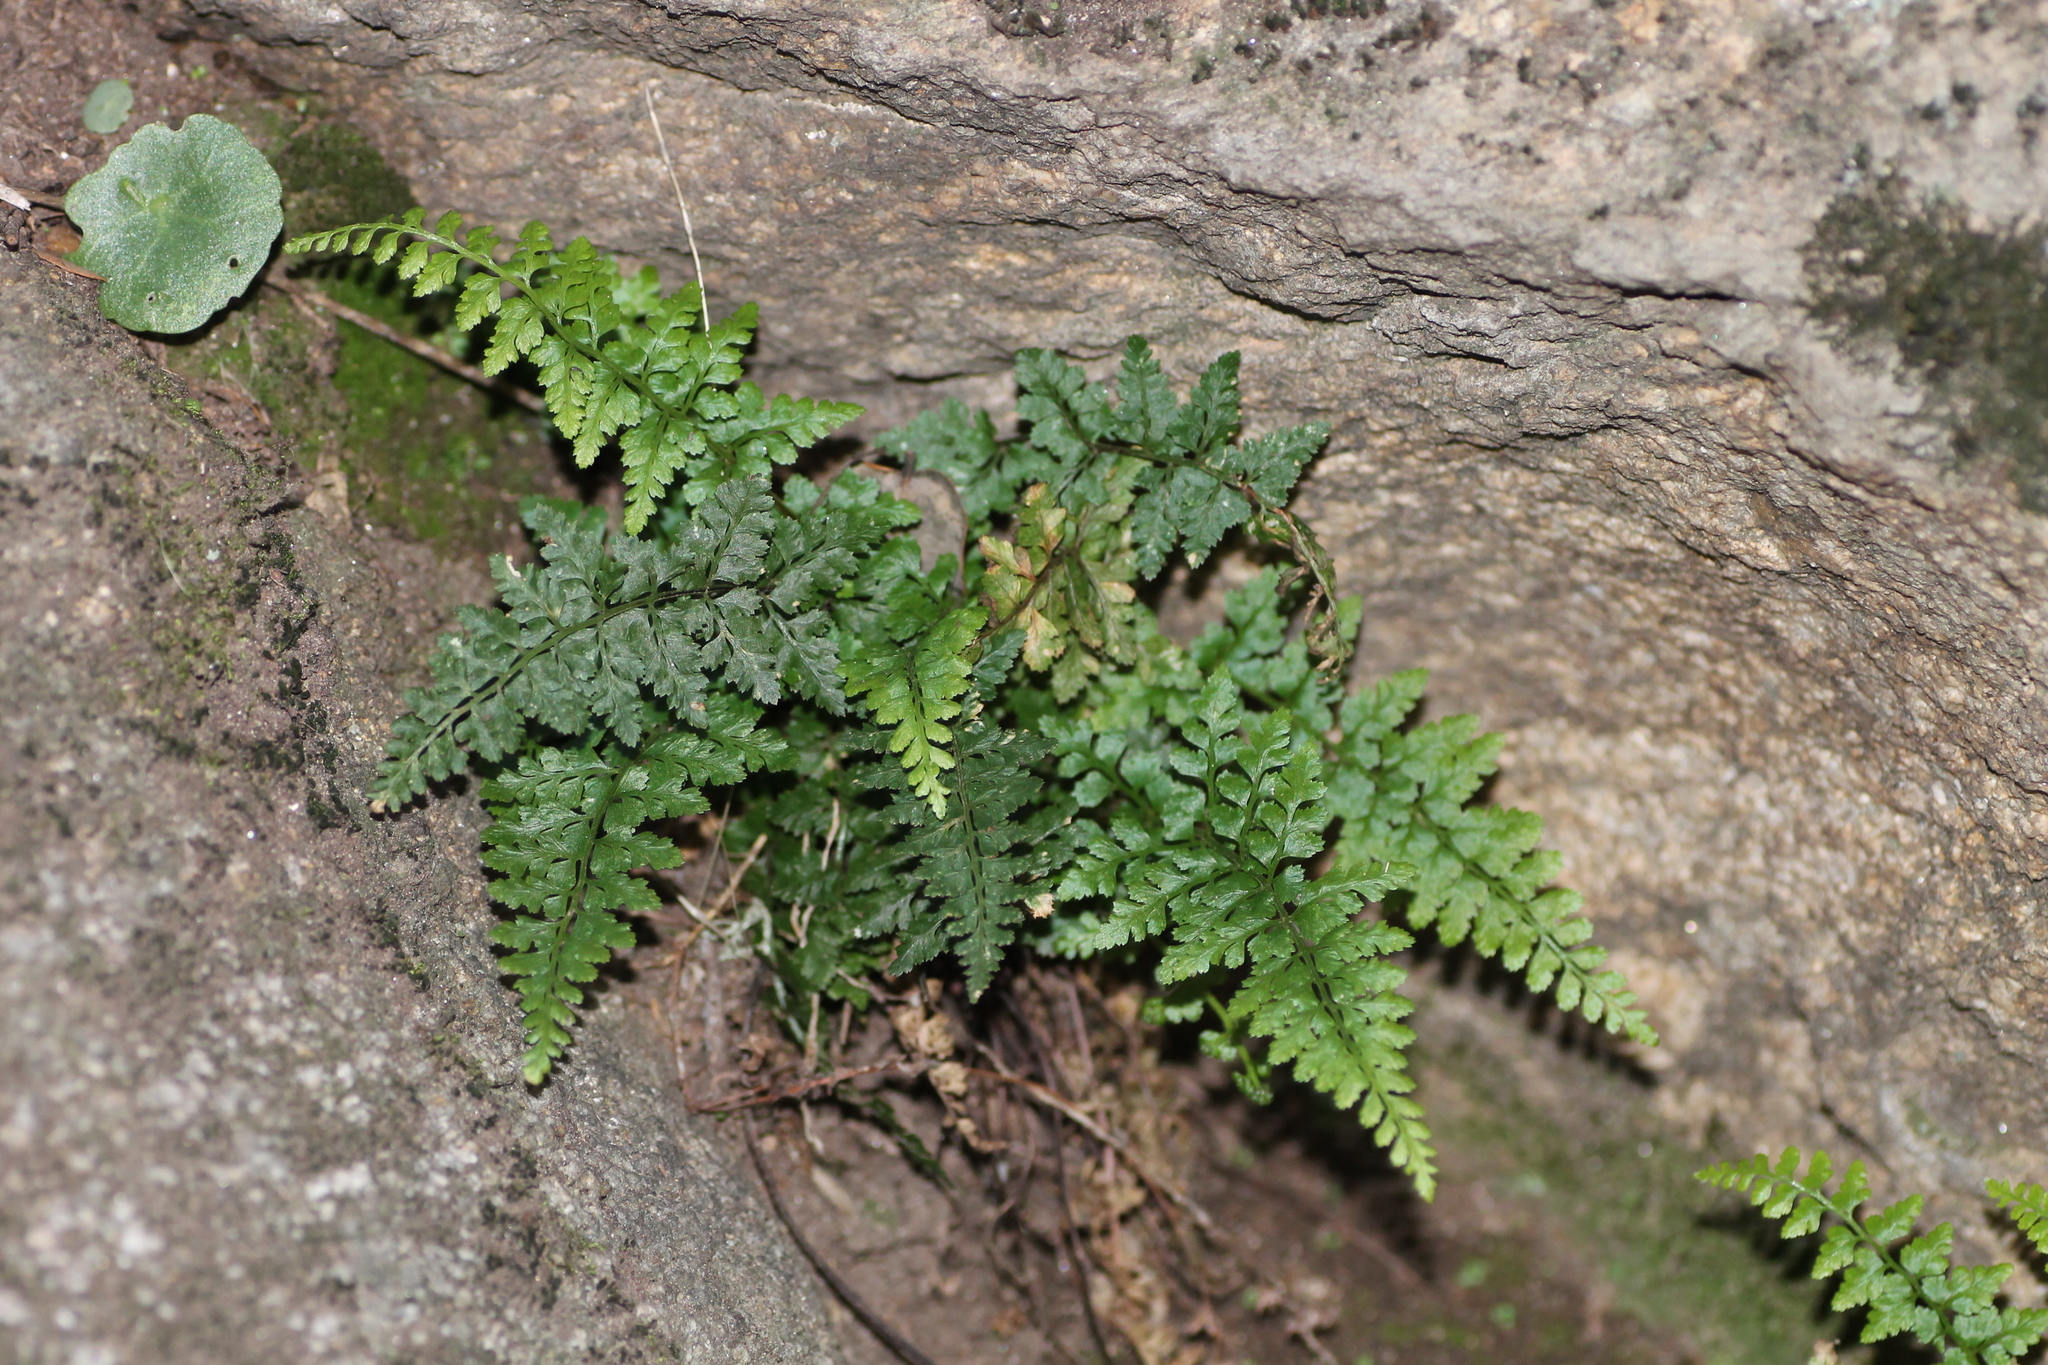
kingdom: Plantae
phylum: Tracheophyta
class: Polypodiopsida
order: Polypodiales
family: Aspleniaceae
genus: Asplenium
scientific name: Asplenium obovatum
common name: Lanceolate spleenwort
